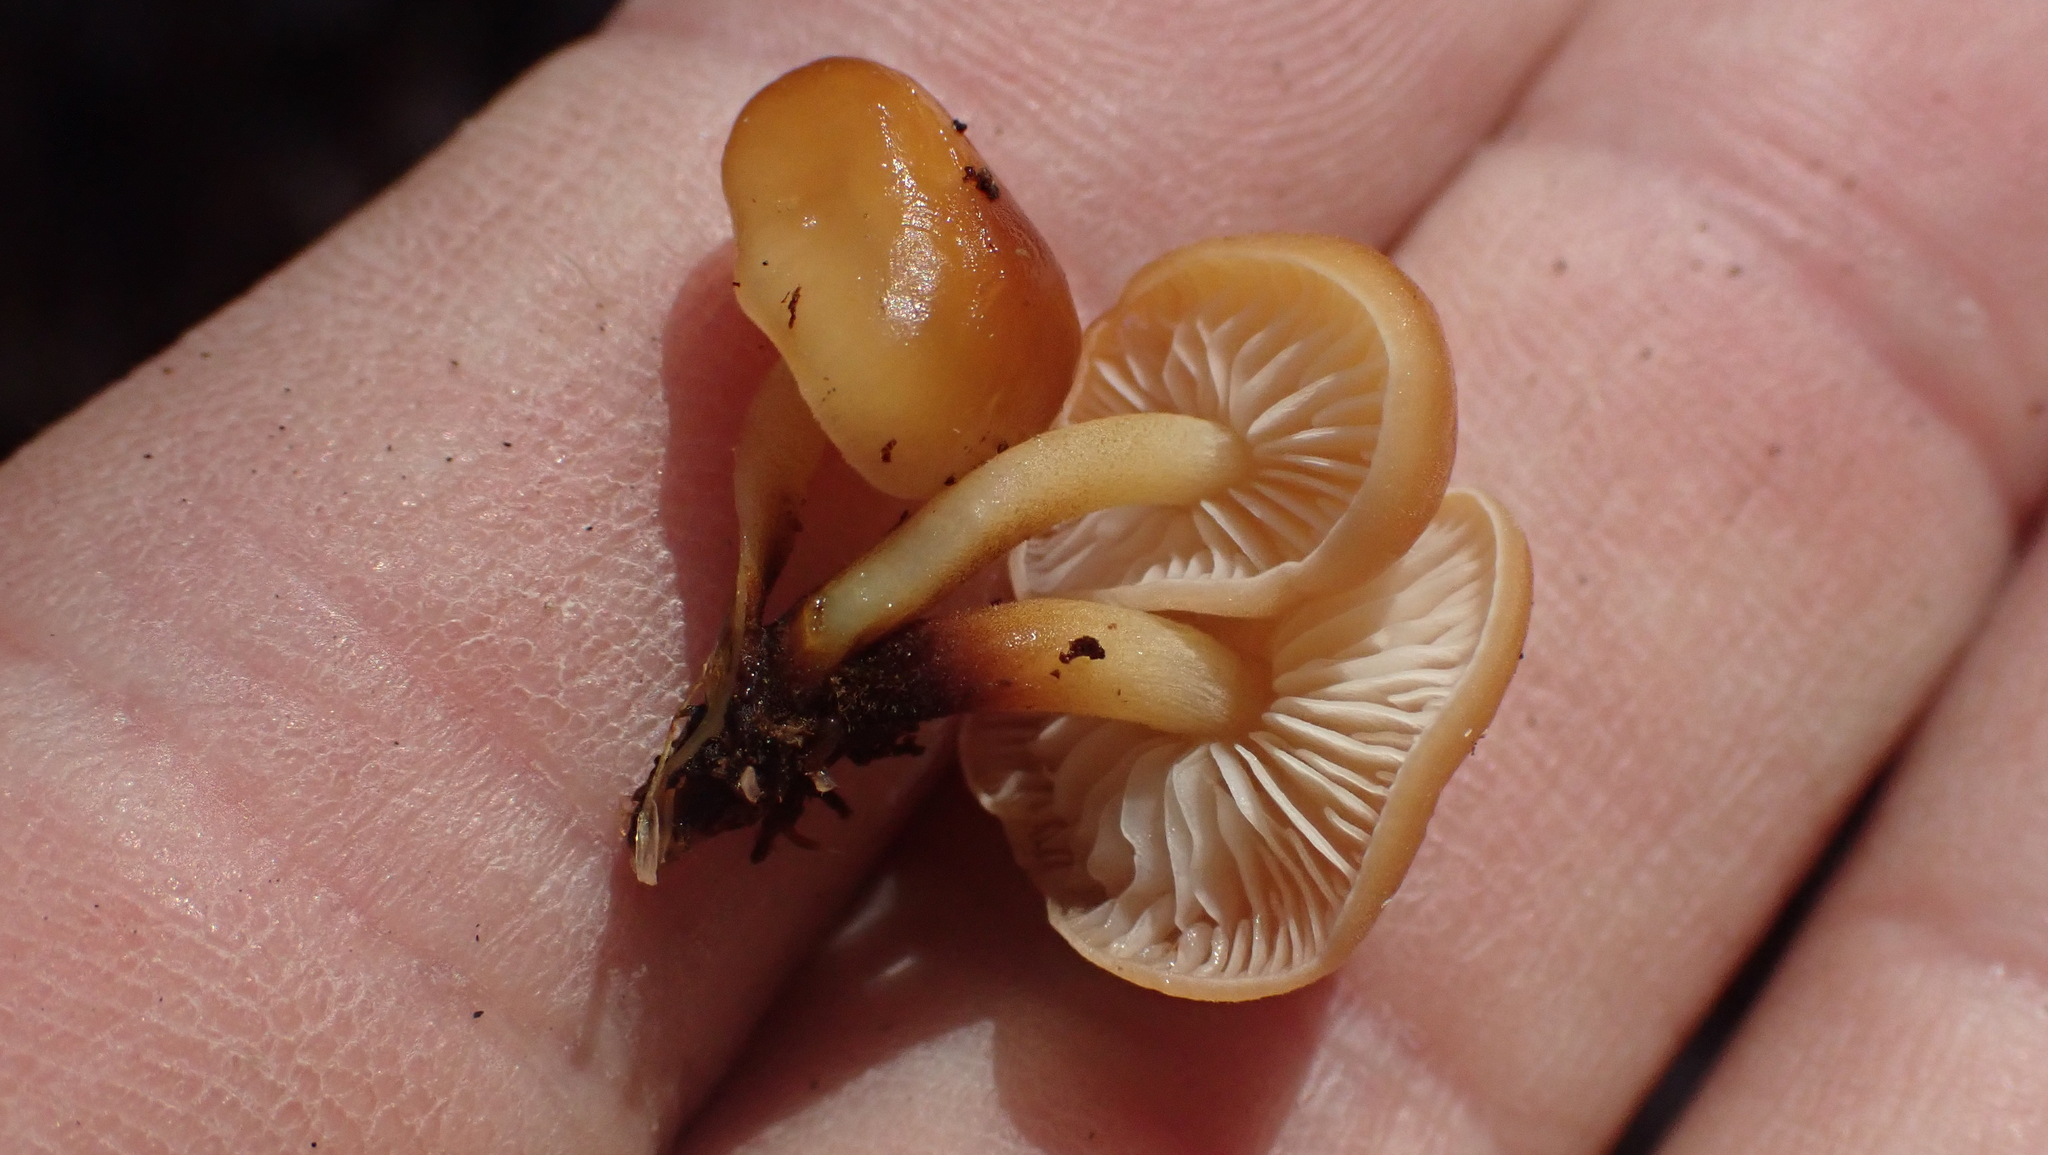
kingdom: Fungi
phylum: Basidiomycota
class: Agaricomycetes
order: Agaricales
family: Physalacriaceae
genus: Flammulina
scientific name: Flammulina velutipes
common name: Velvet shank
